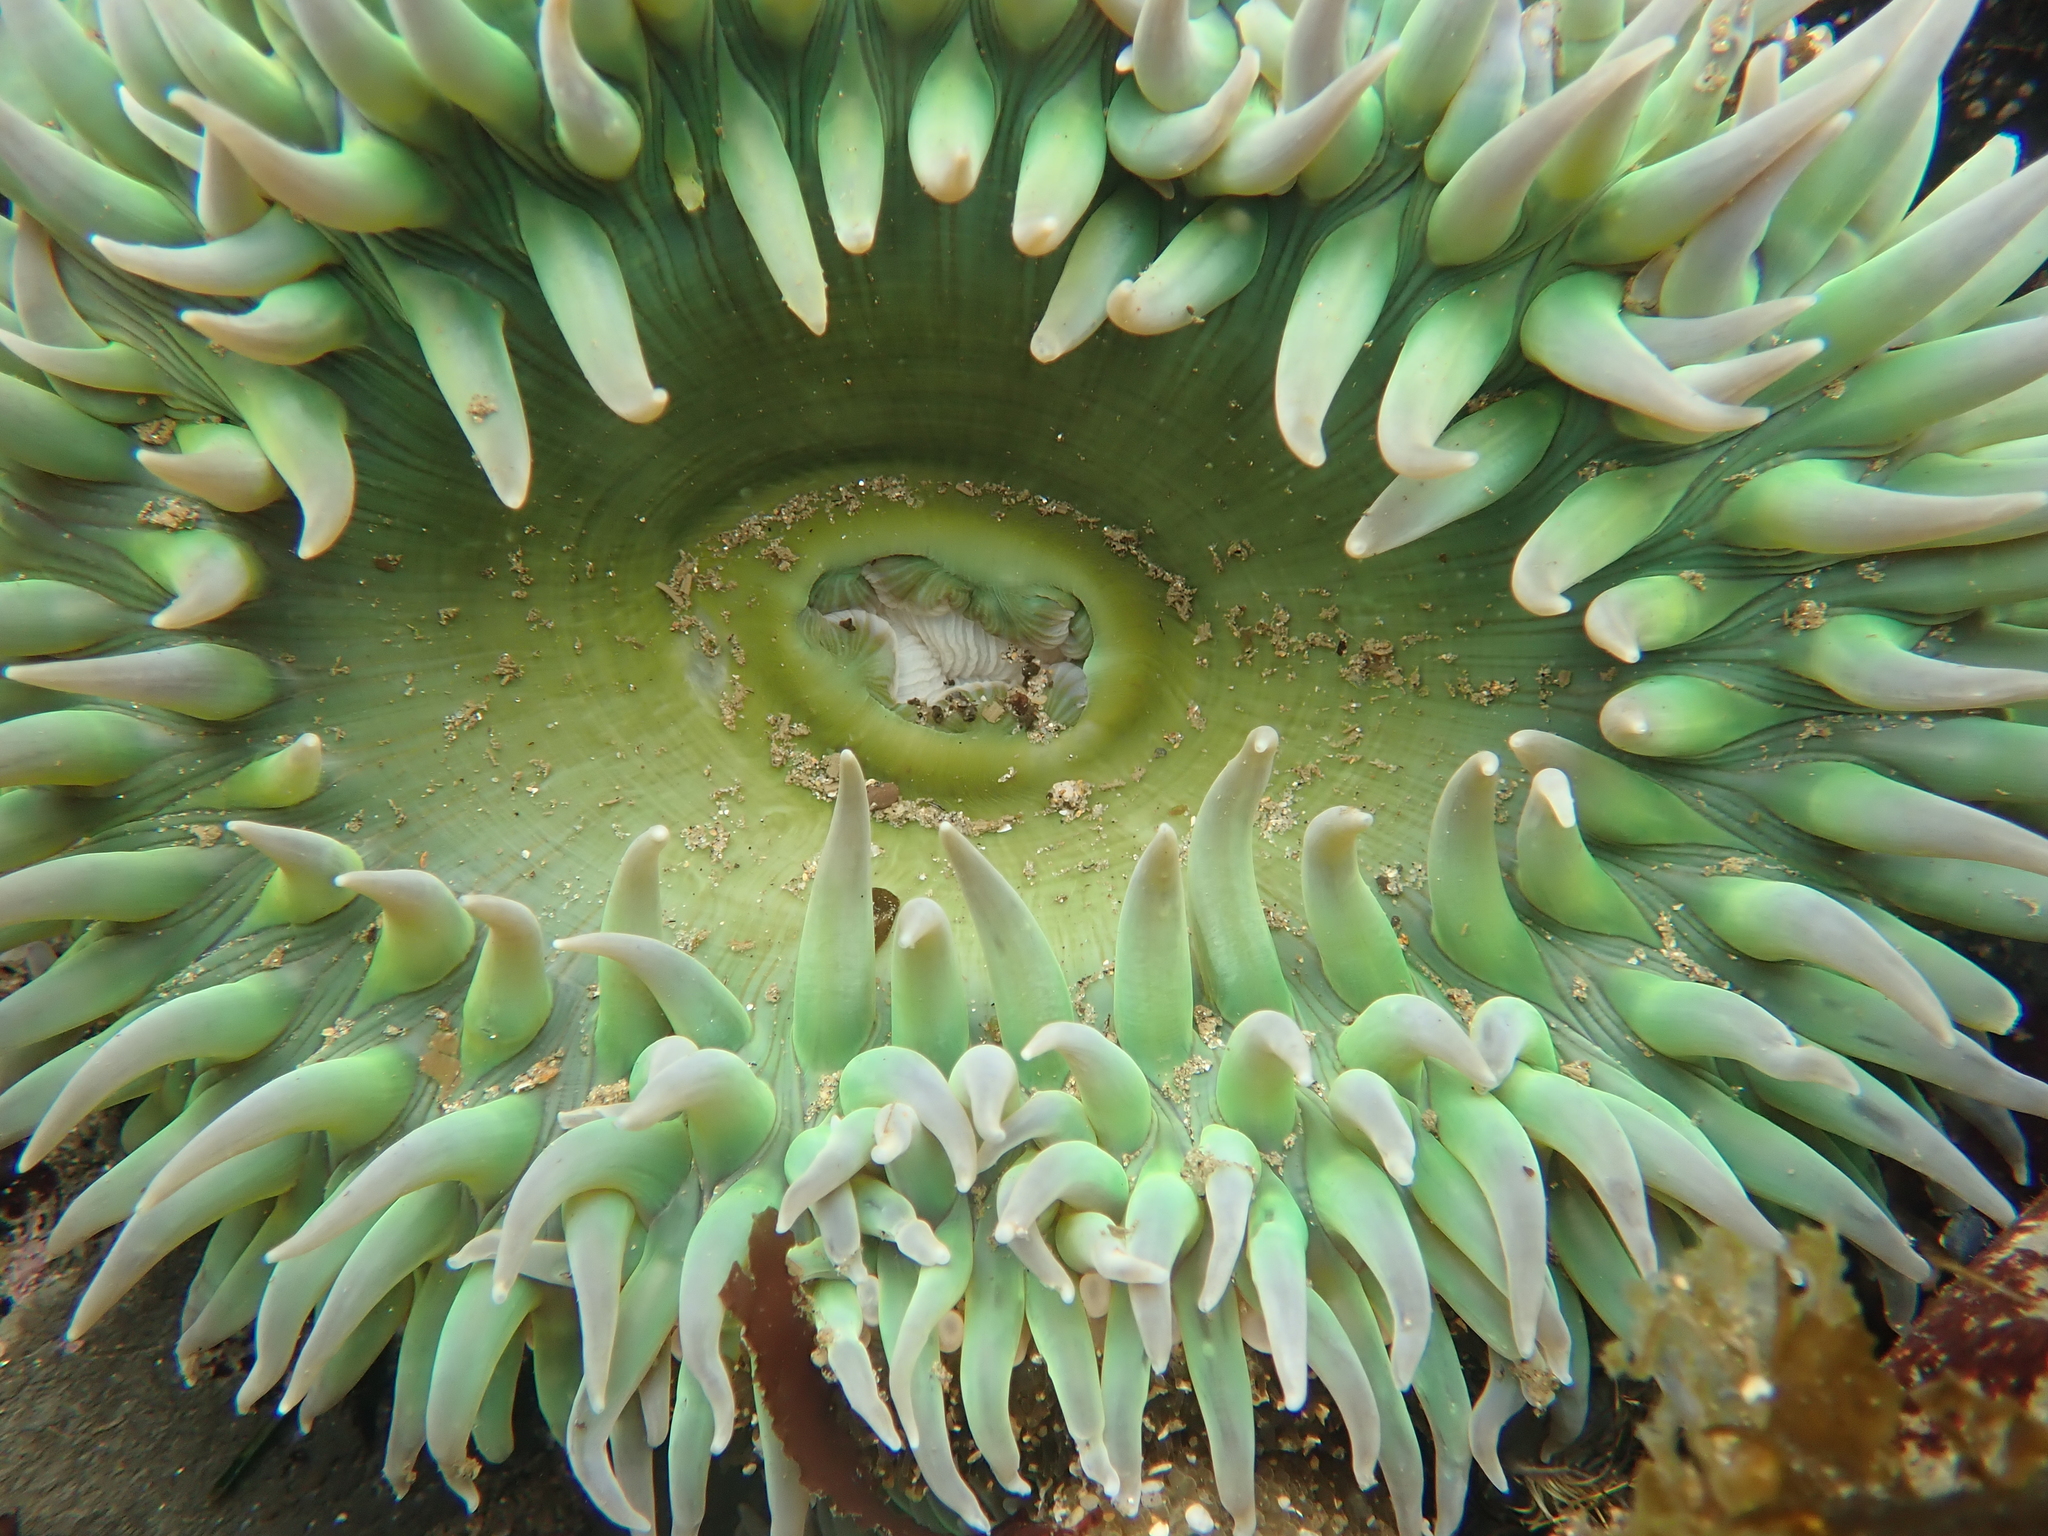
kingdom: Animalia
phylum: Cnidaria
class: Anthozoa
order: Actiniaria
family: Actiniidae
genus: Anthopleura
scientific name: Anthopleura xanthogrammica
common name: Giant green anemone
